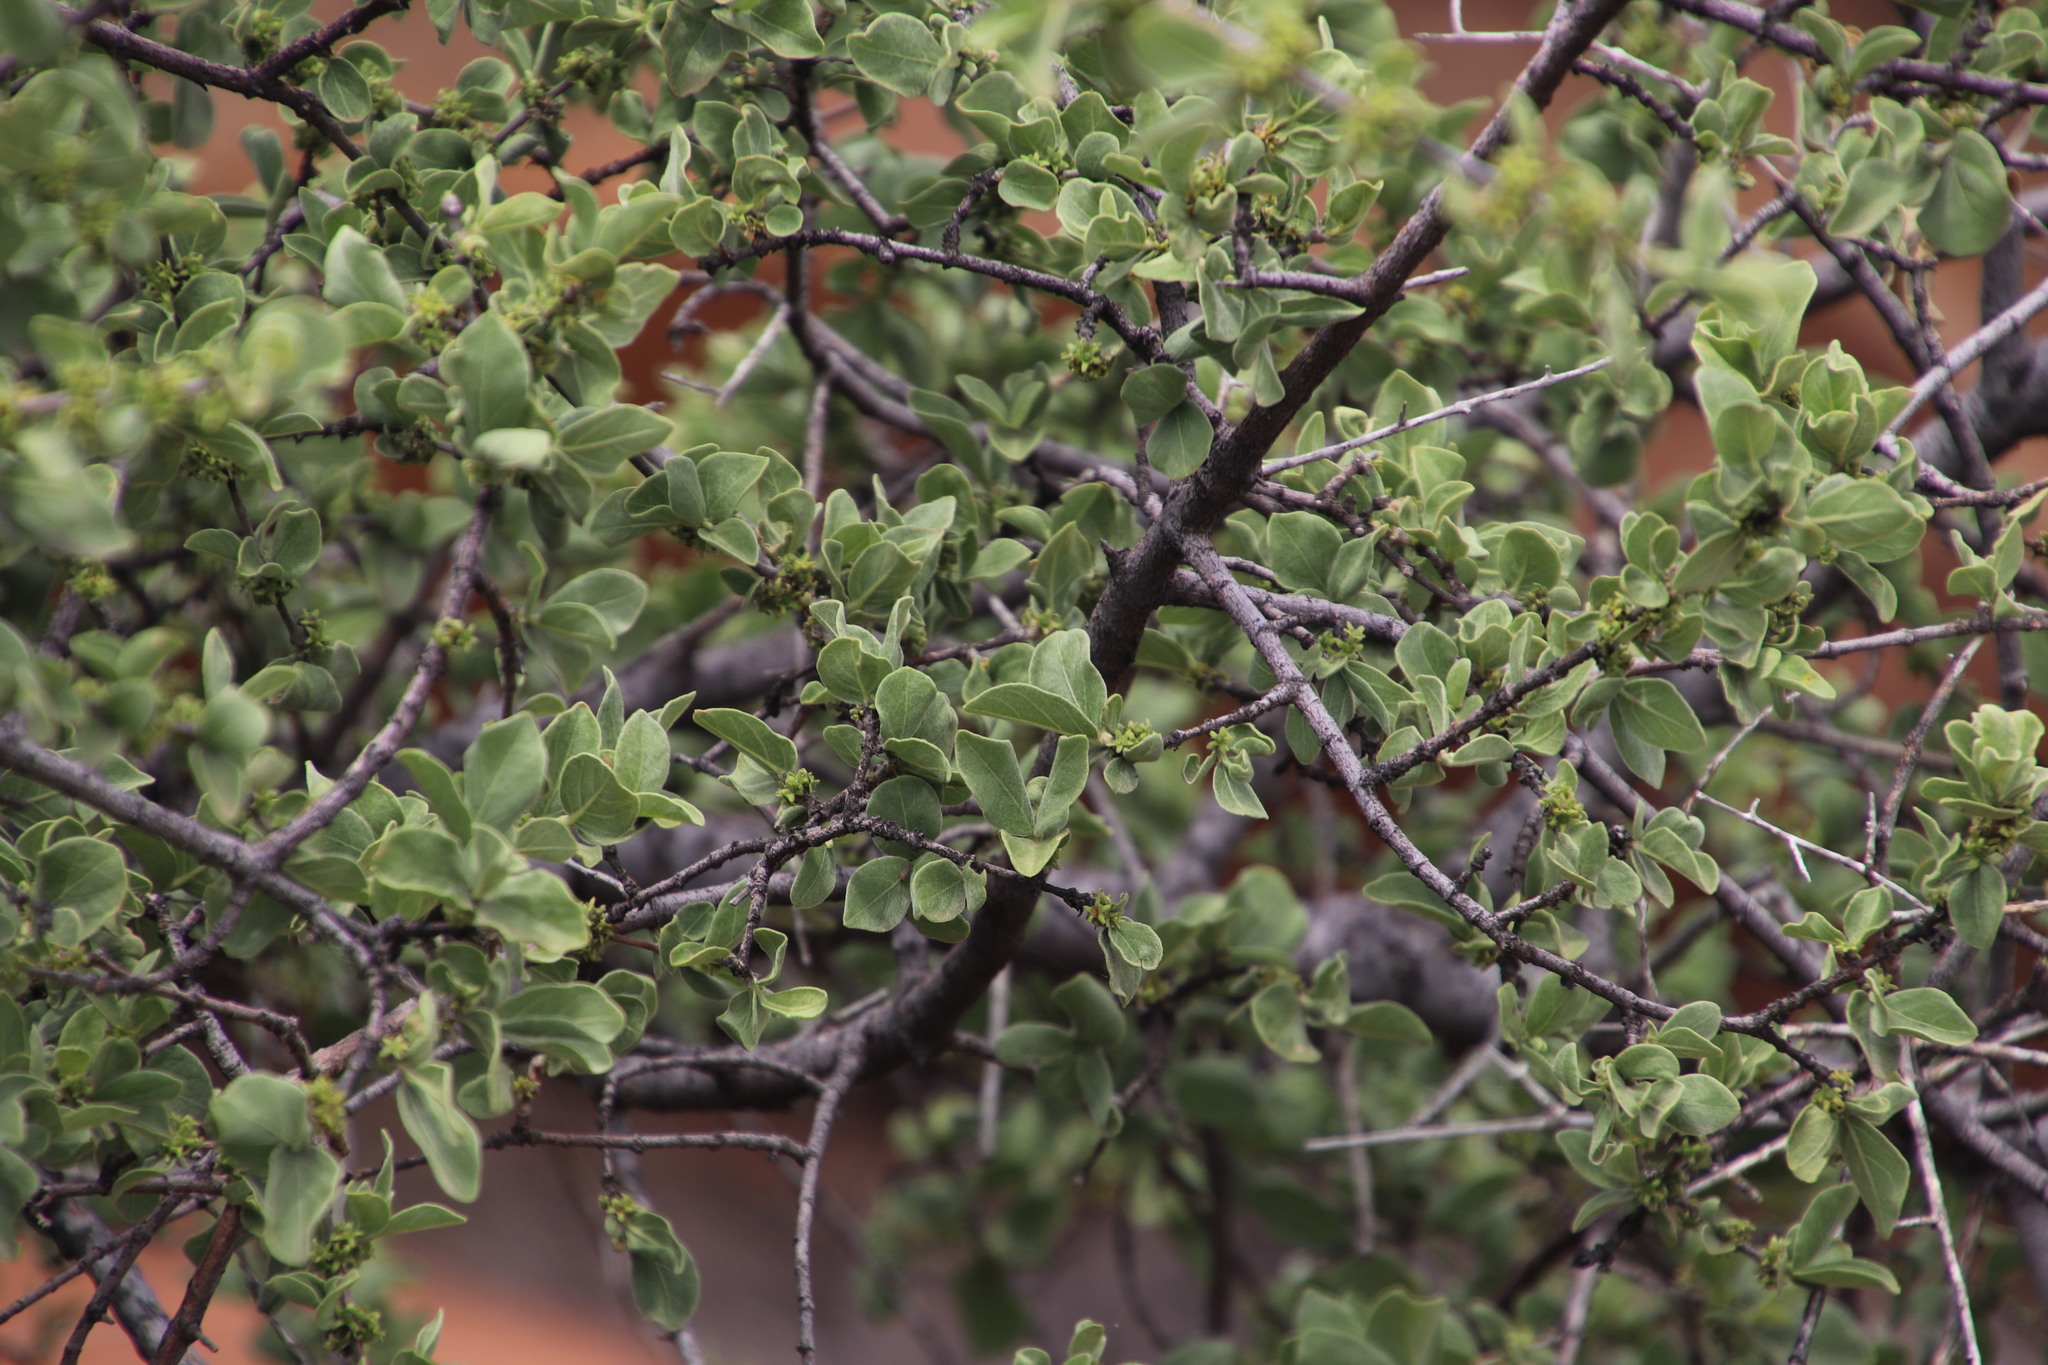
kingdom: Plantae
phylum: Tracheophyta
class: Magnoliopsida
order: Gentianales
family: Rubiaceae
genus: Vangueria
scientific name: Vangueria parvifolia
